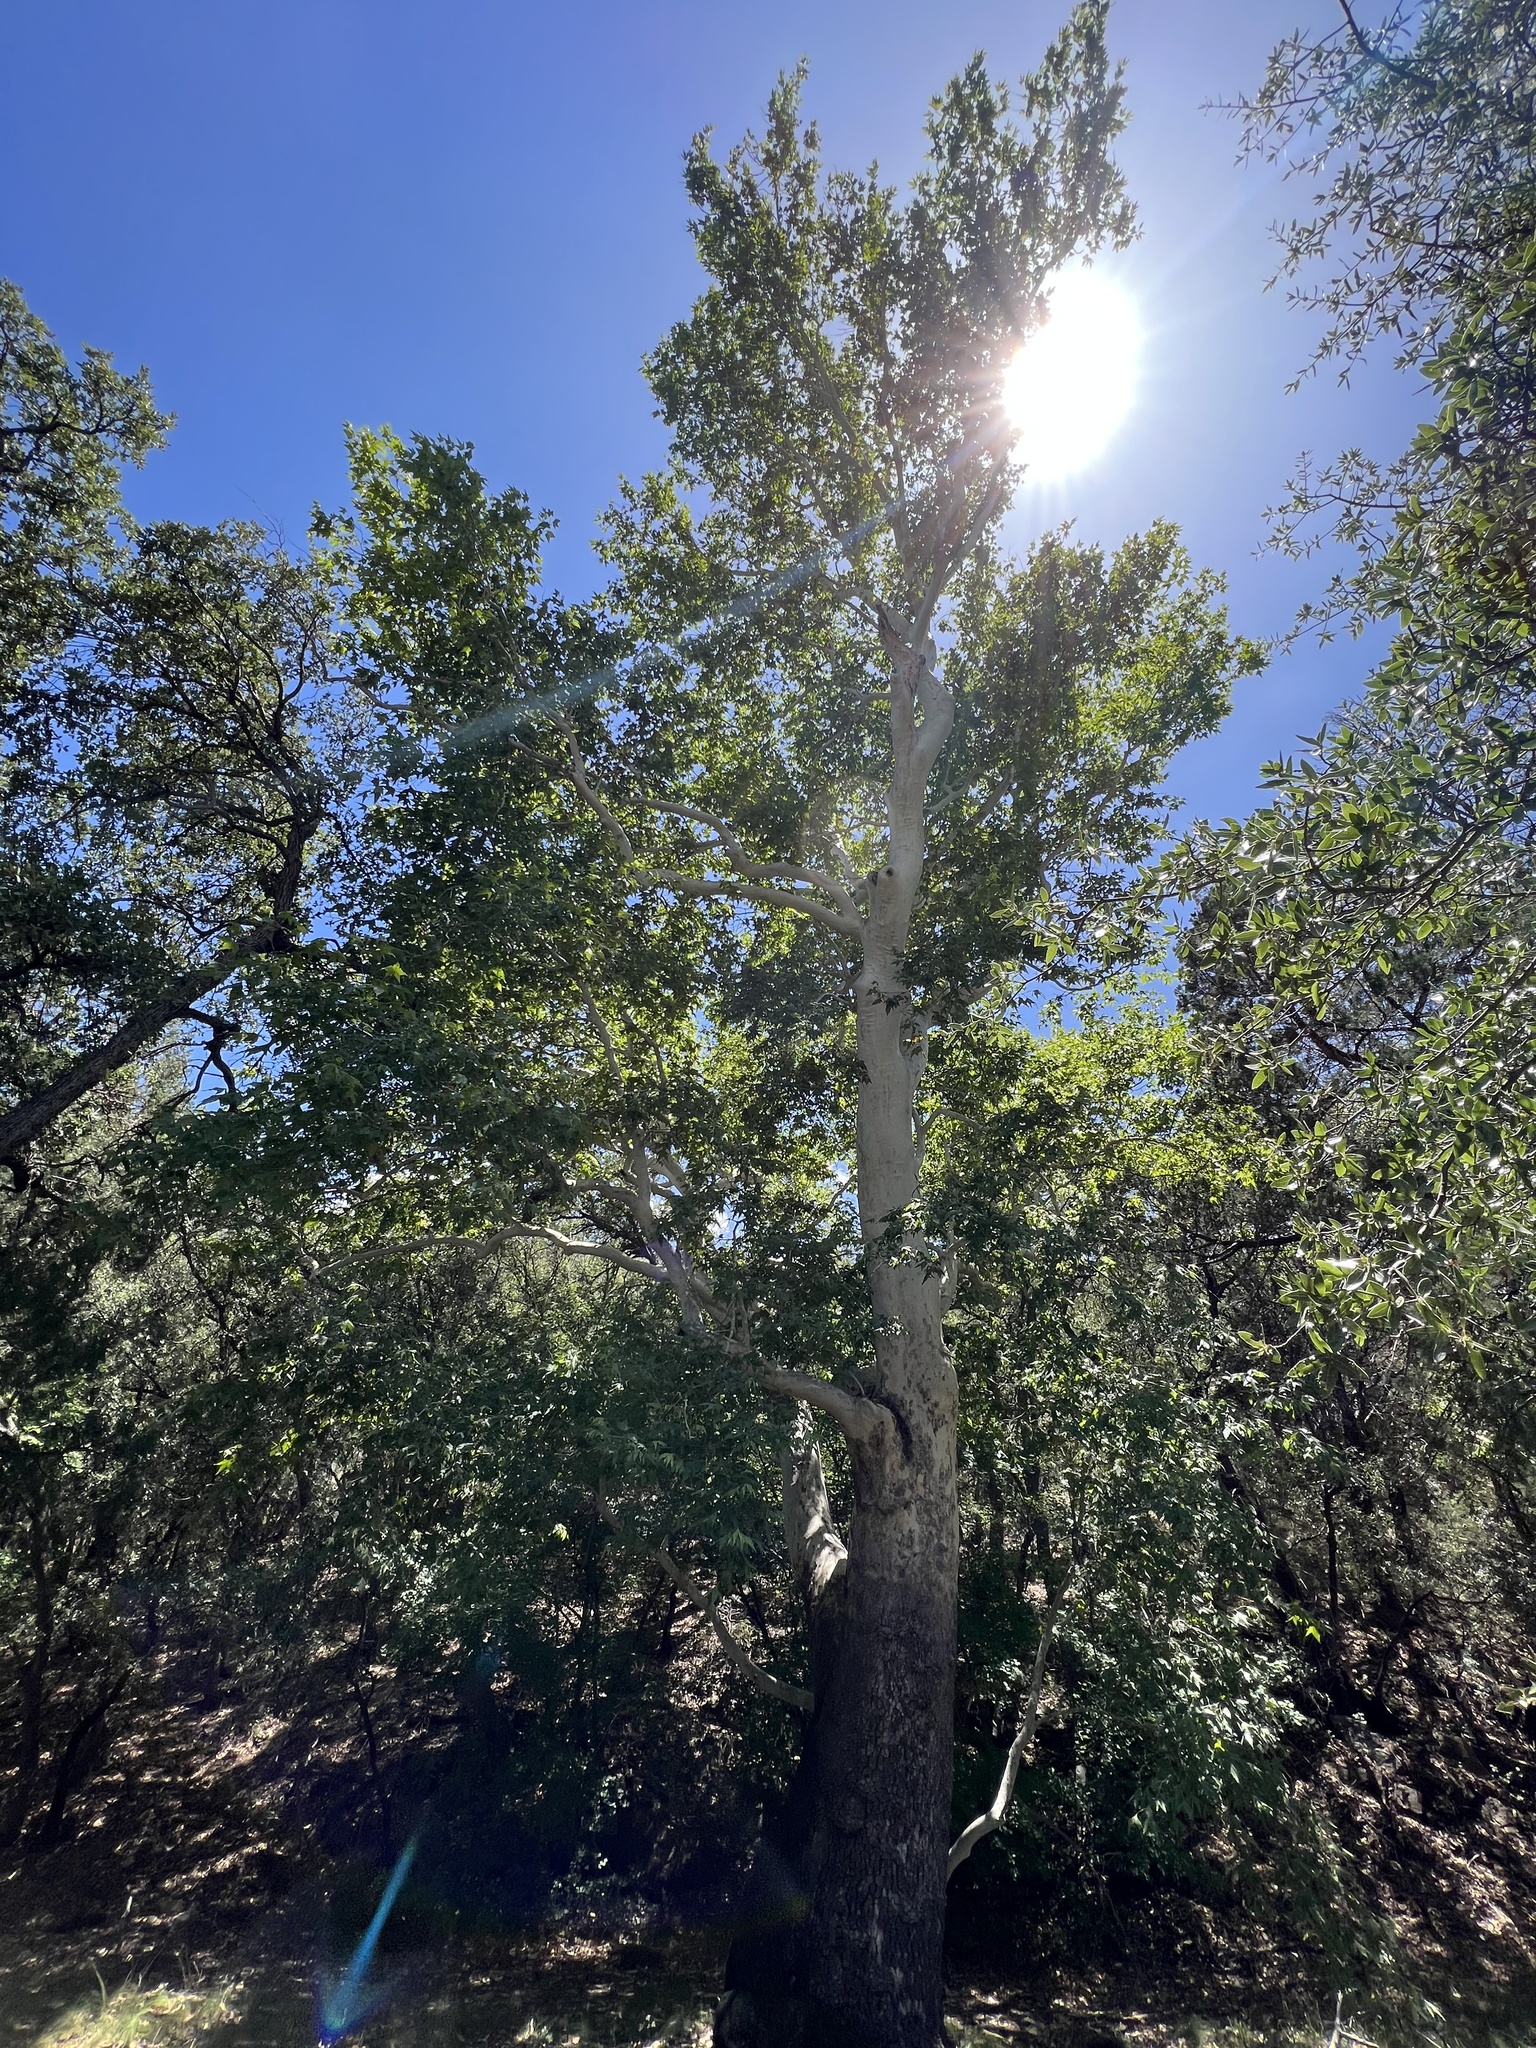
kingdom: Plantae
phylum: Tracheophyta
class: Magnoliopsida
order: Proteales
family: Platanaceae
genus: Platanus
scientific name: Platanus wrightii
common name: Arizona sycamore
